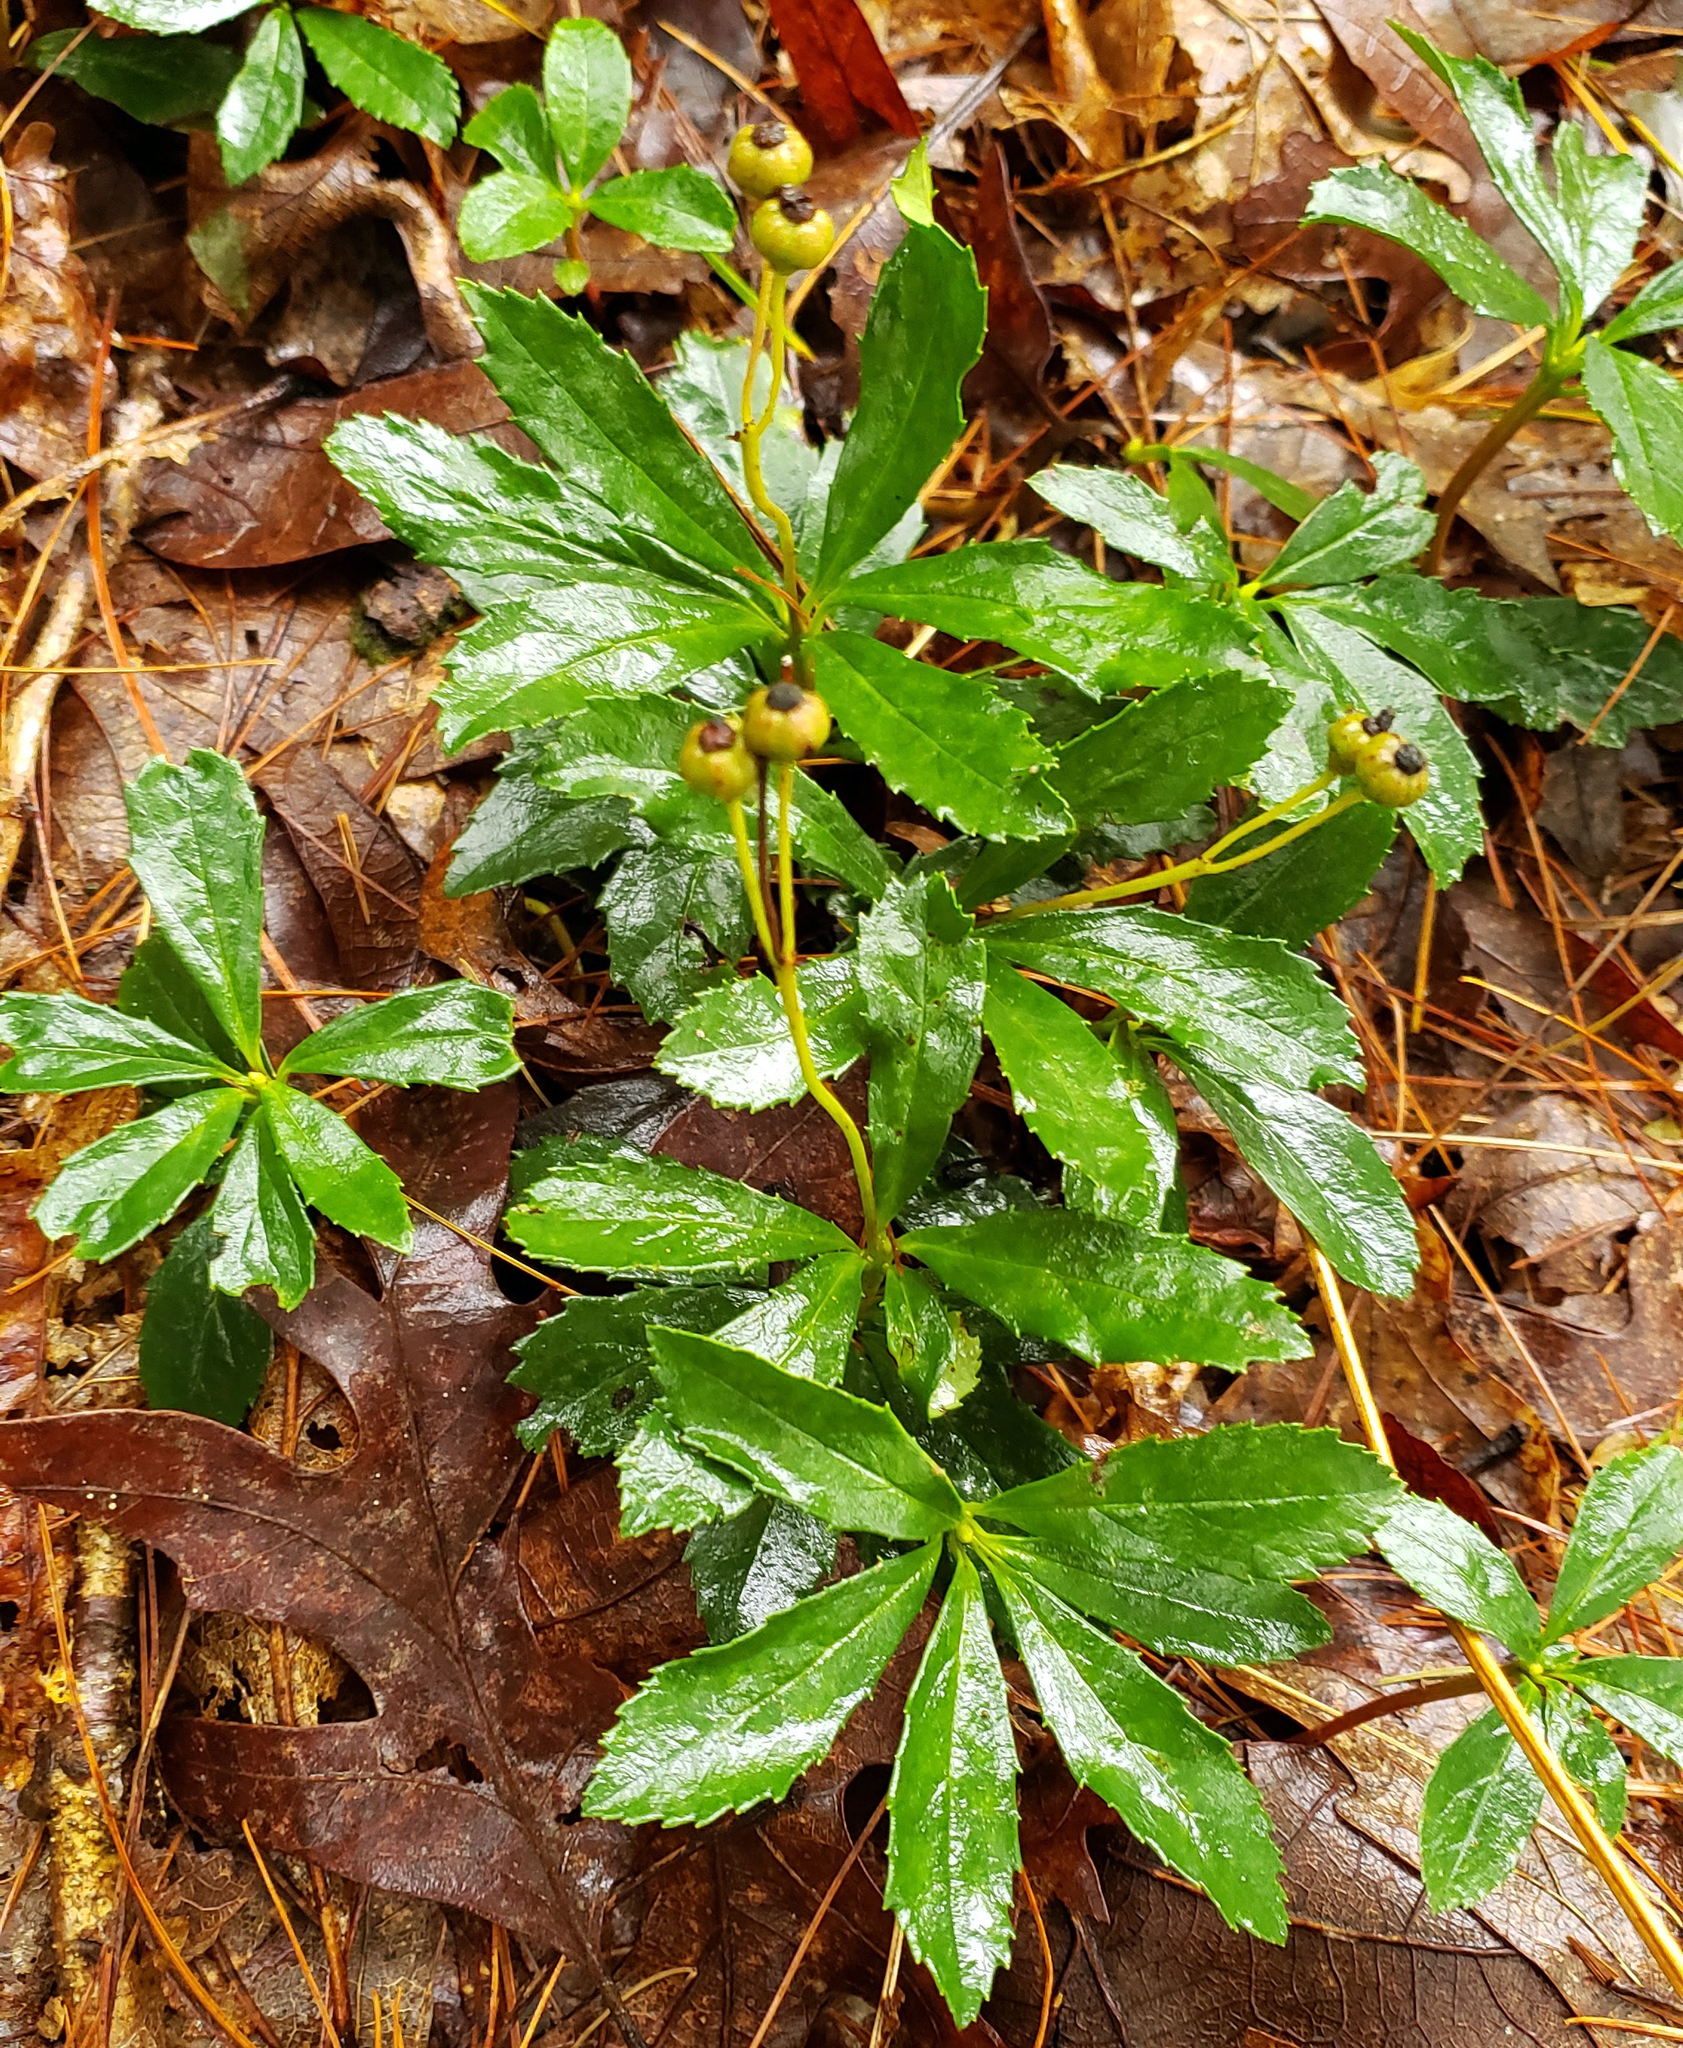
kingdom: Plantae
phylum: Tracheophyta
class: Magnoliopsida
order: Ericales
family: Ericaceae
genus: Chimaphila
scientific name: Chimaphila umbellata
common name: Pipsissewa
